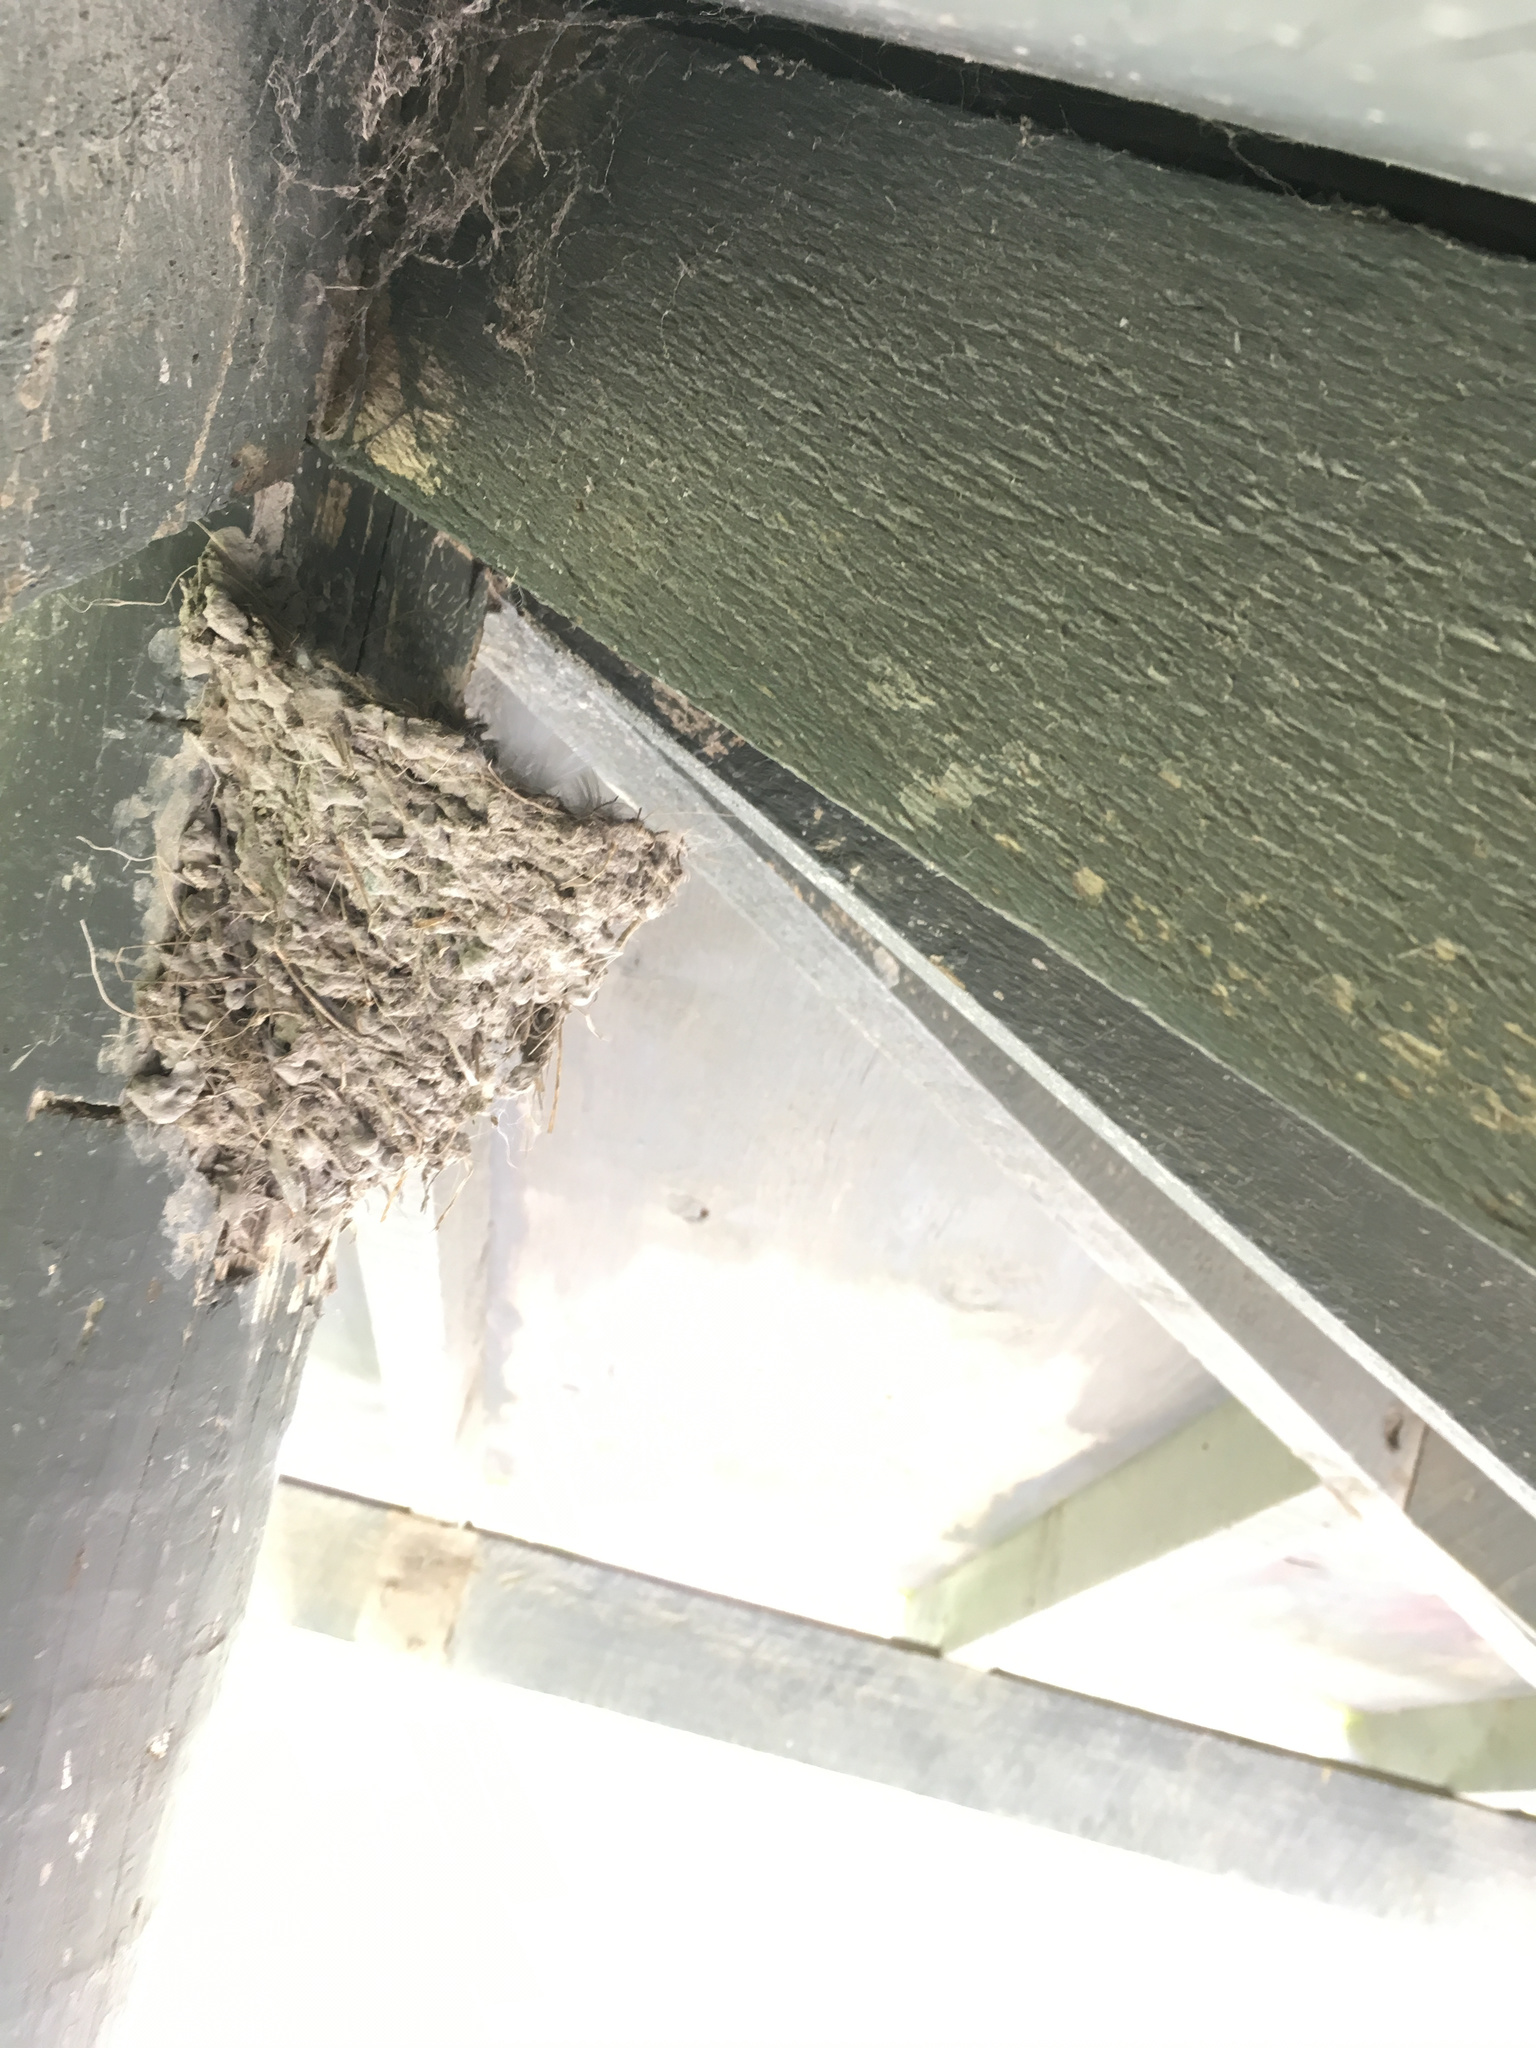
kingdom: Animalia
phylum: Chordata
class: Aves
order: Passeriformes
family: Hirundinidae
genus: Hirundo
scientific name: Hirundo neoxena
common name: Welcome swallow
